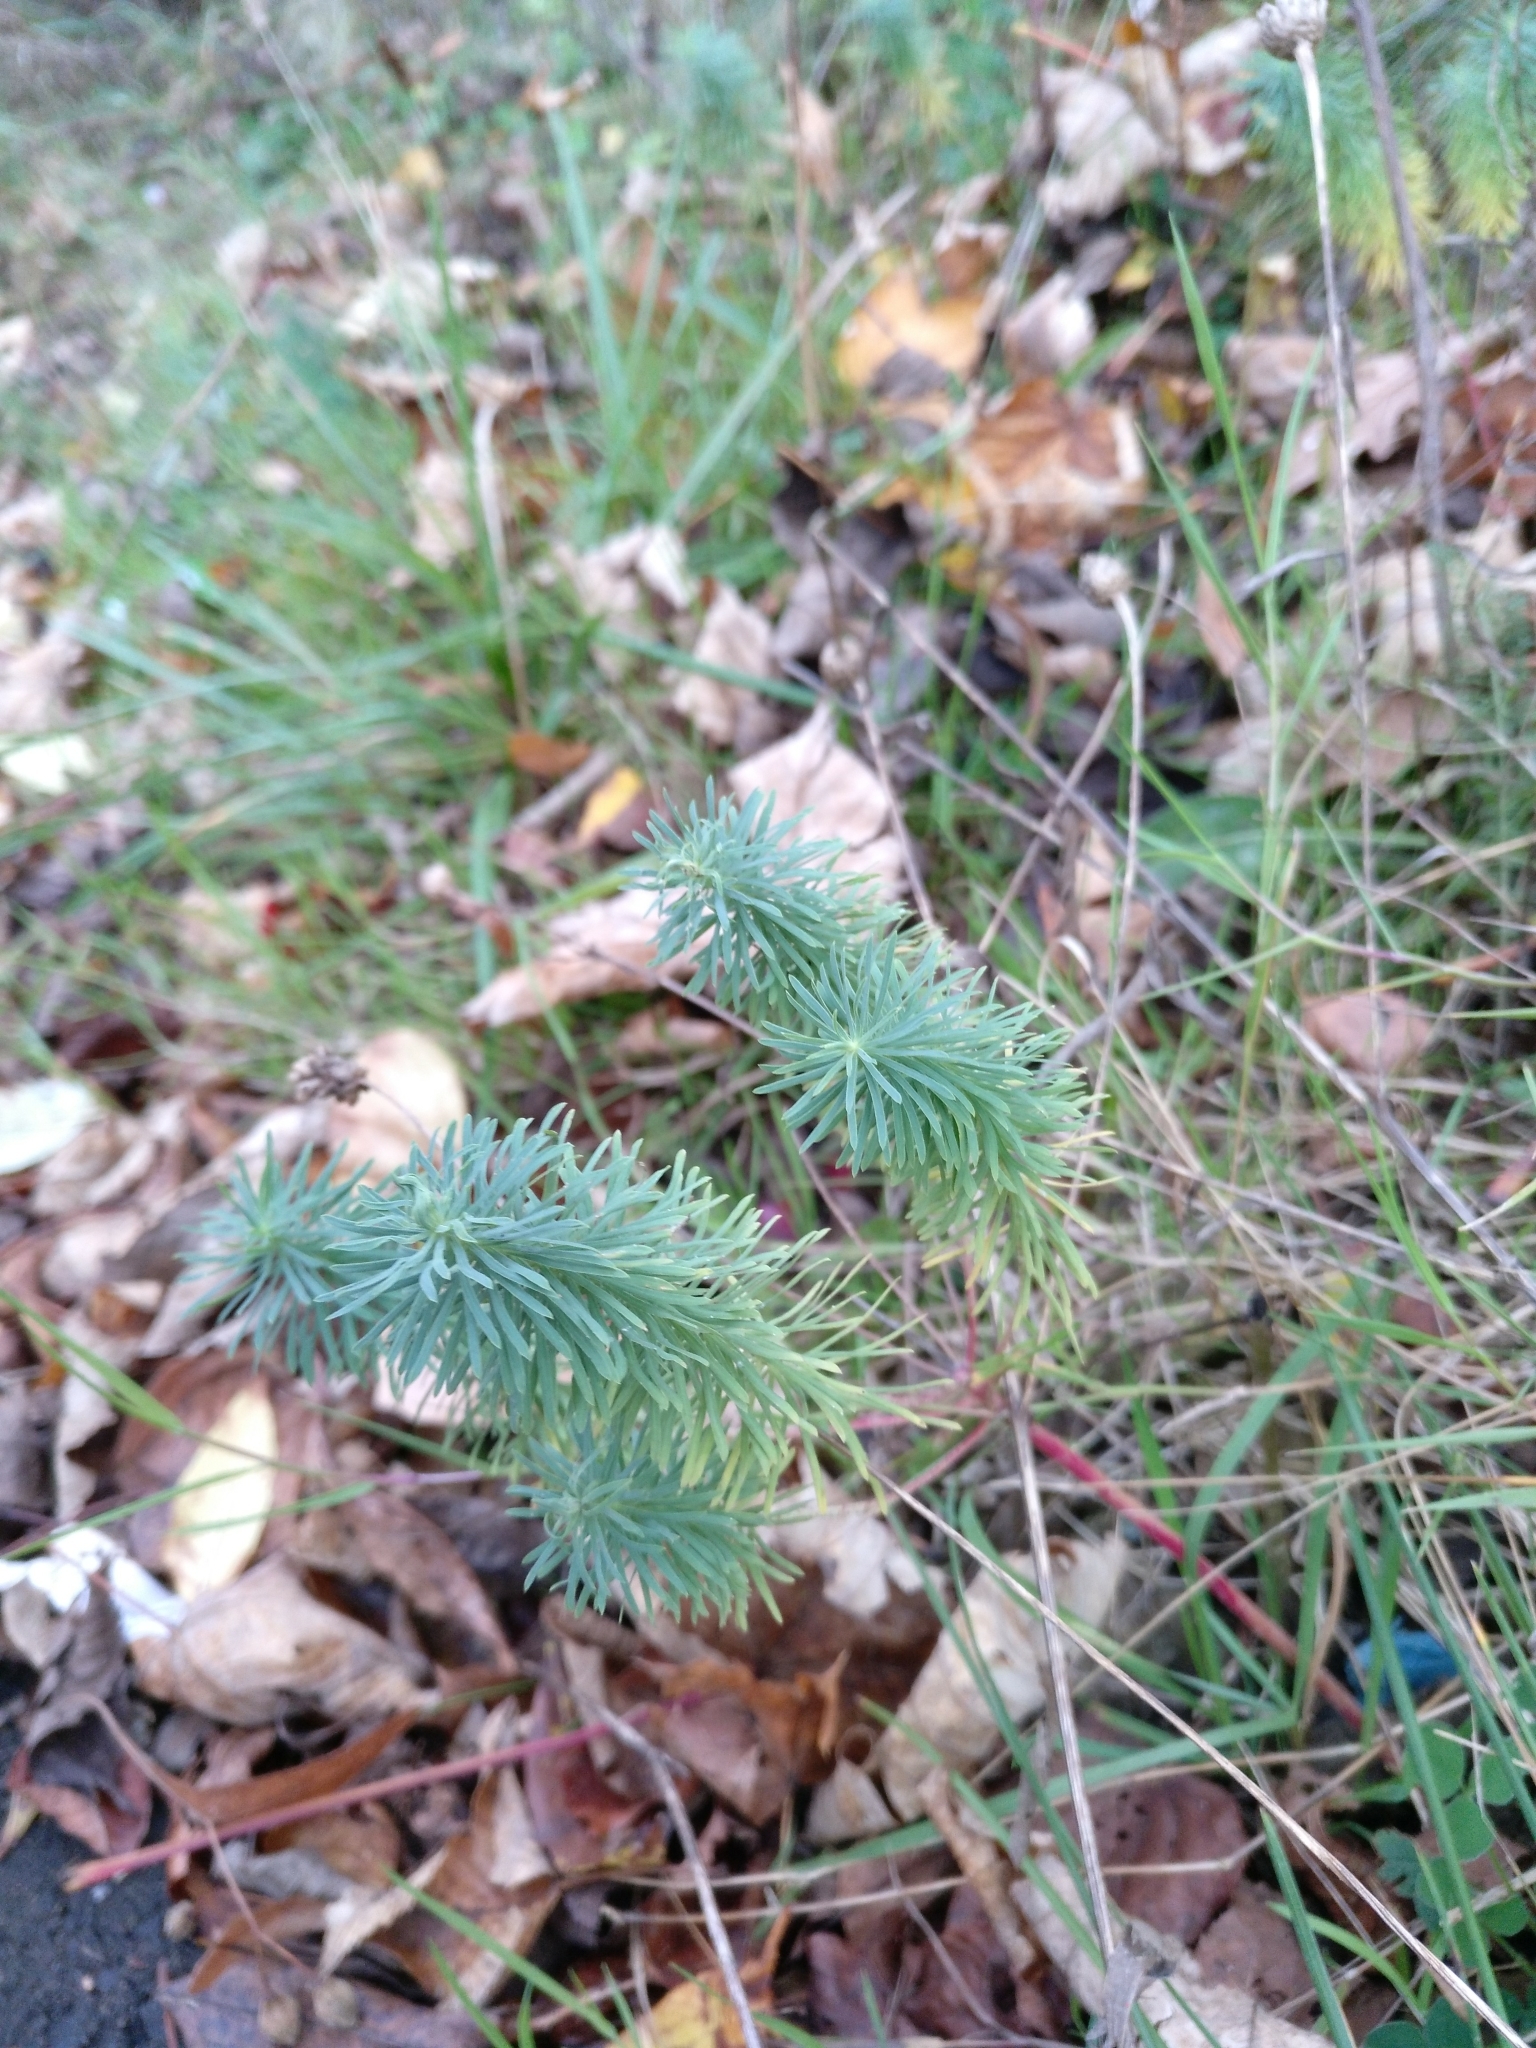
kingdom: Plantae
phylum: Tracheophyta
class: Magnoliopsida
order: Malpighiales
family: Euphorbiaceae
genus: Euphorbia
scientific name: Euphorbia cyparissias
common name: Cypress spurge
